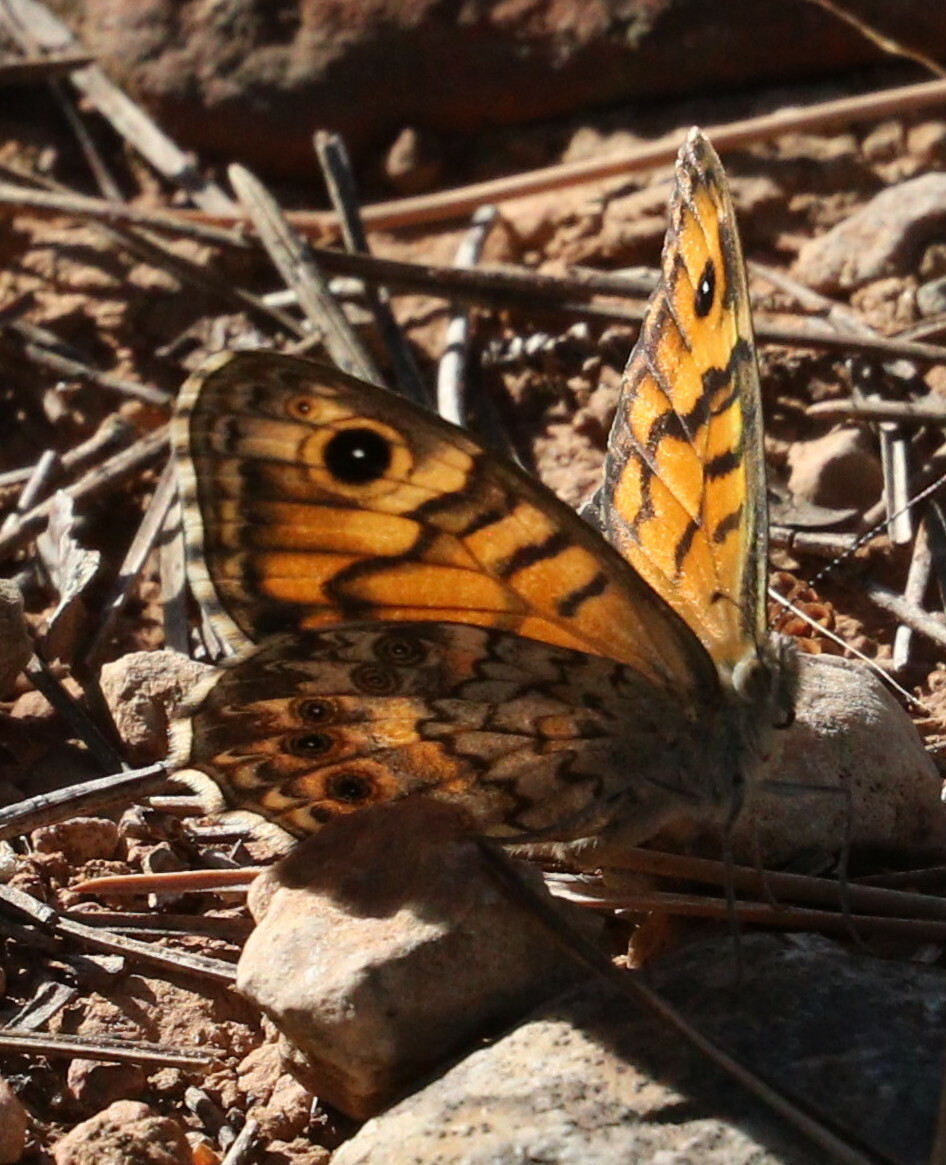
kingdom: Animalia
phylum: Arthropoda
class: Insecta
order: Lepidoptera
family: Nymphalidae
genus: Pararge
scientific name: Pararge Lasiommata megera
